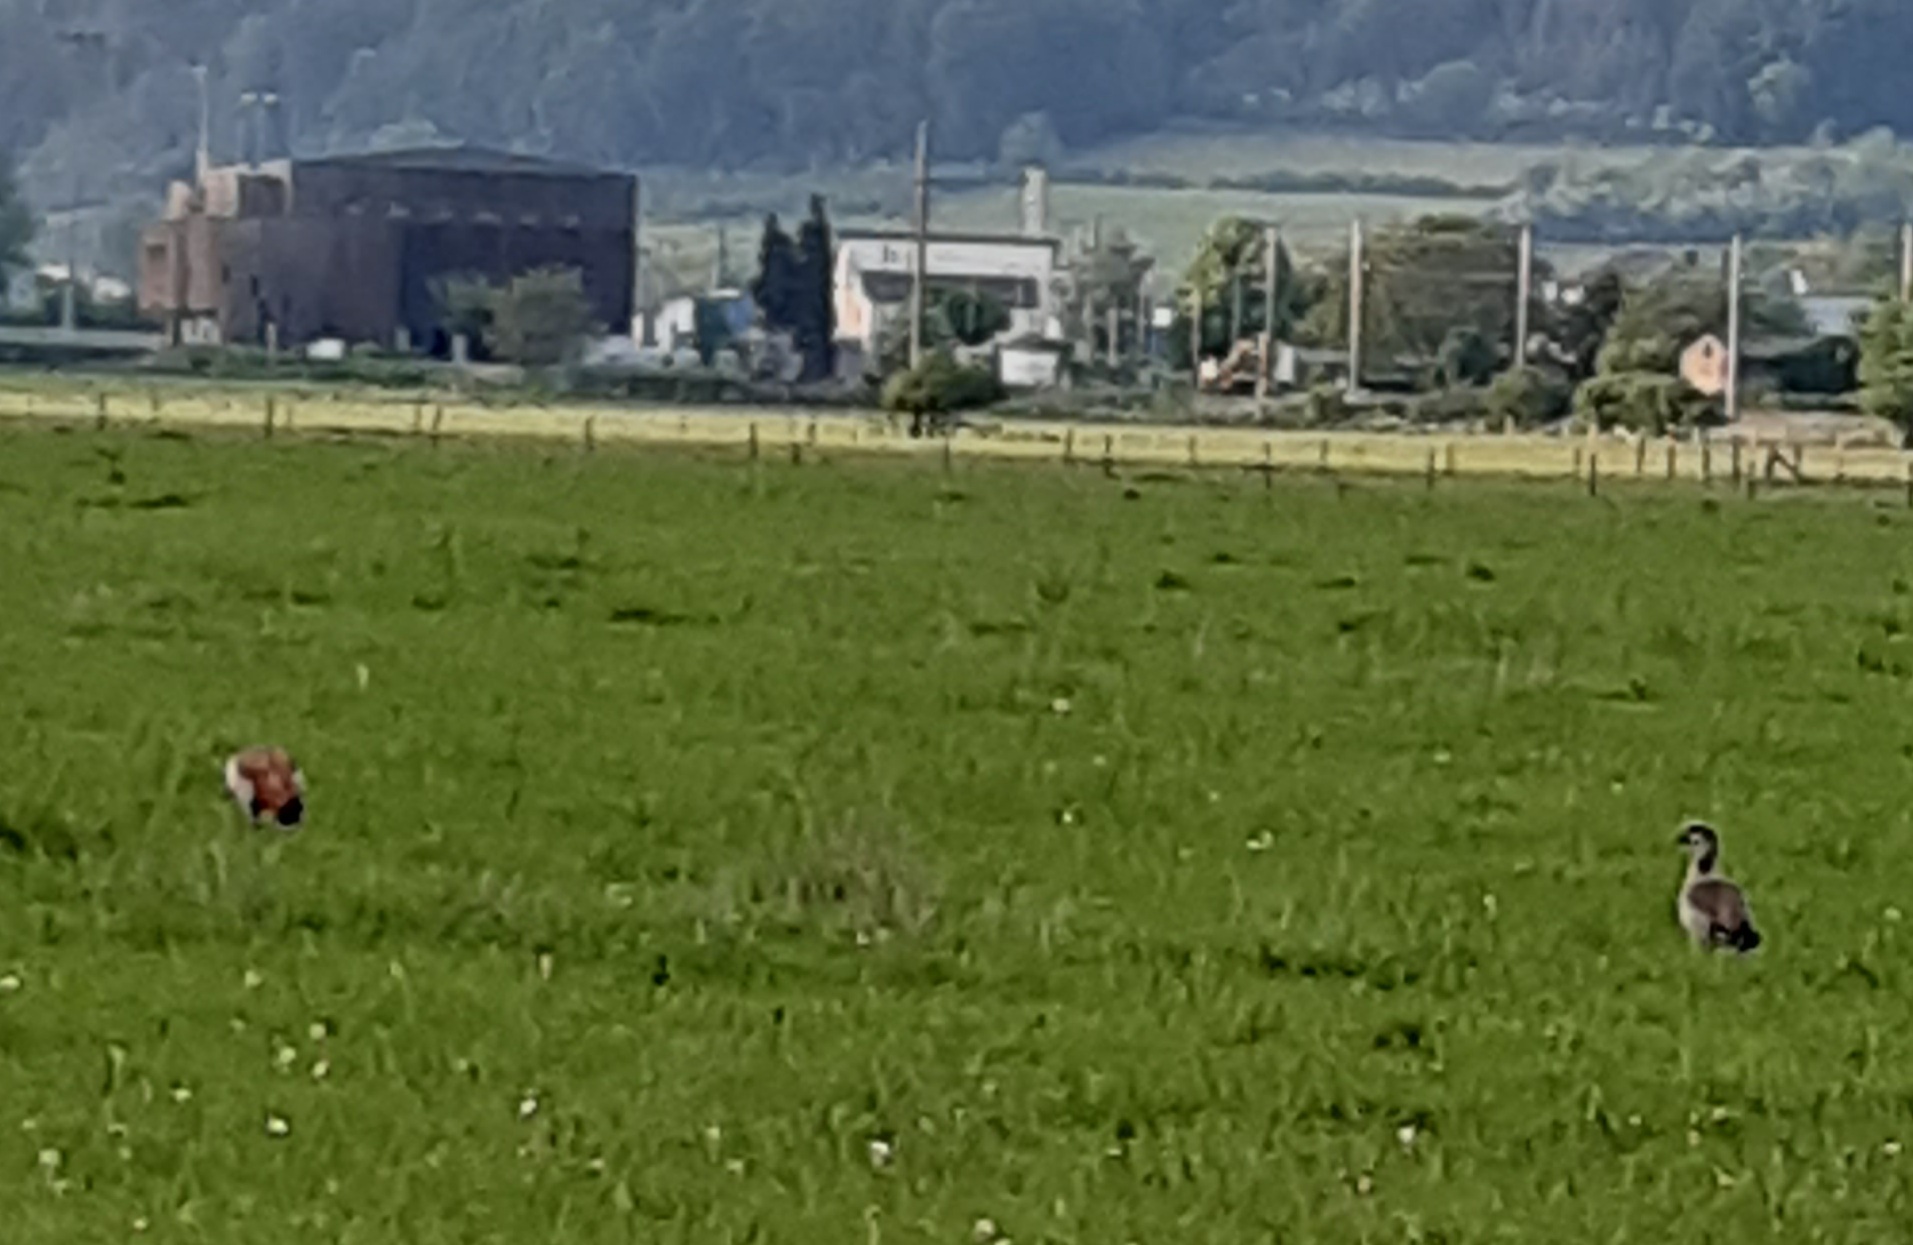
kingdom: Animalia
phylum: Chordata
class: Aves
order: Anseriformes
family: Anatidae
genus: Alopochen
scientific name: Alopochen aegyptiaca
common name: Egyptian goose
